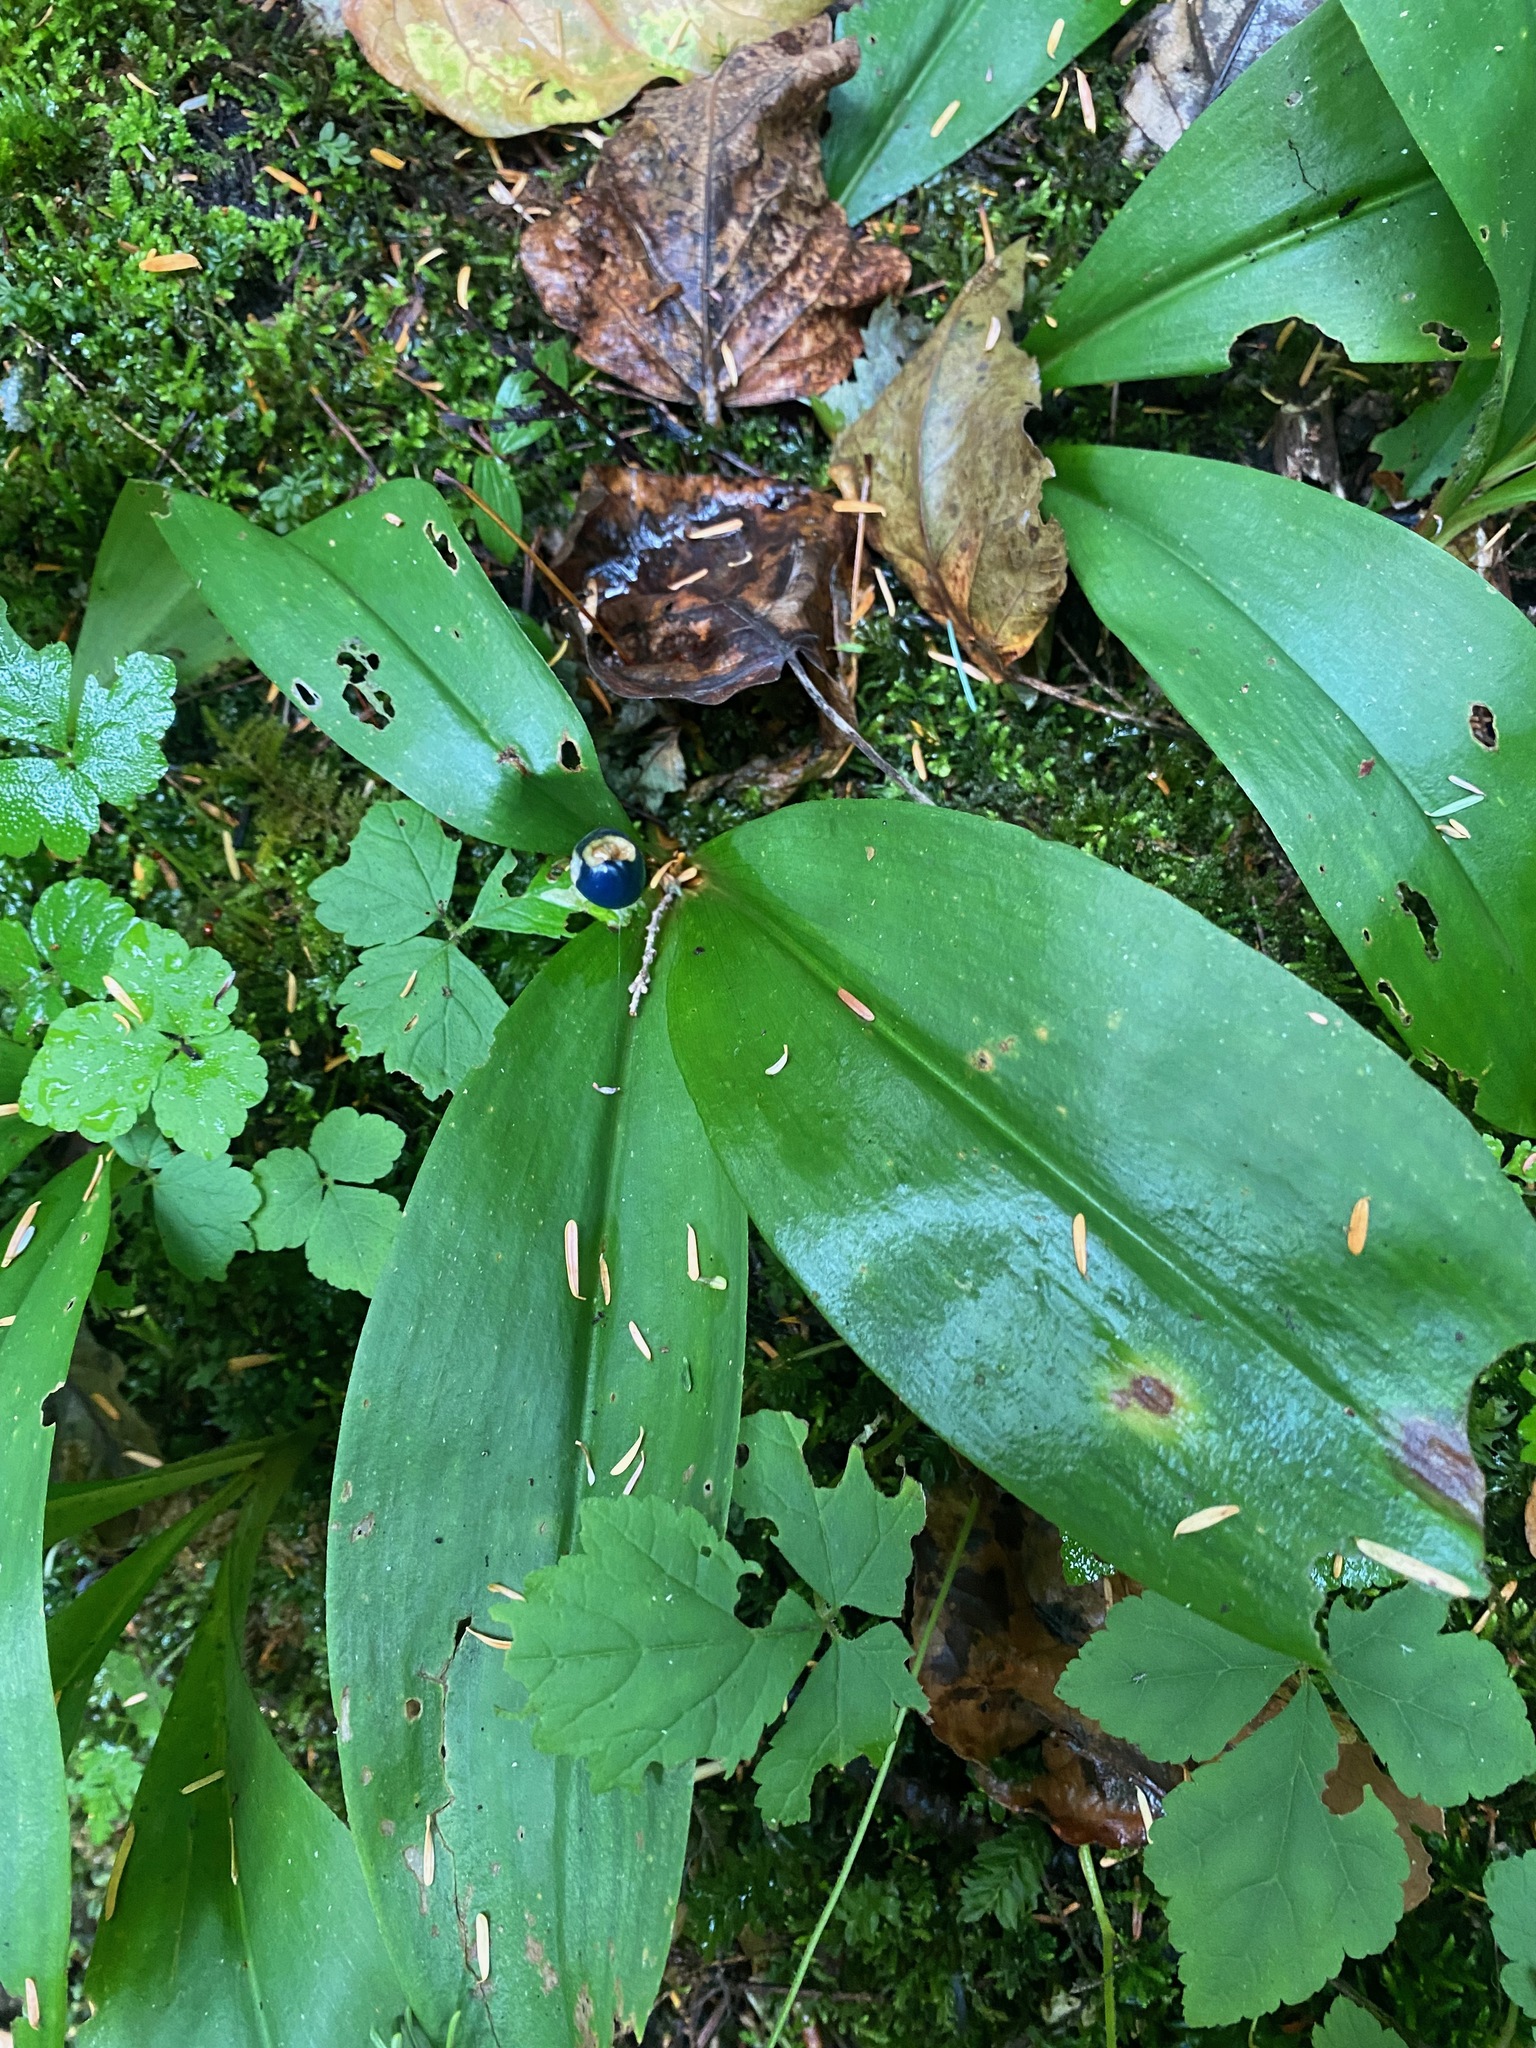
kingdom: Plantae
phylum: Tracheophyta
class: Liliopsida
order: Liliales
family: Liliaceae
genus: Clintonia
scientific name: Clintonia uniflora
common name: Queen's cup
